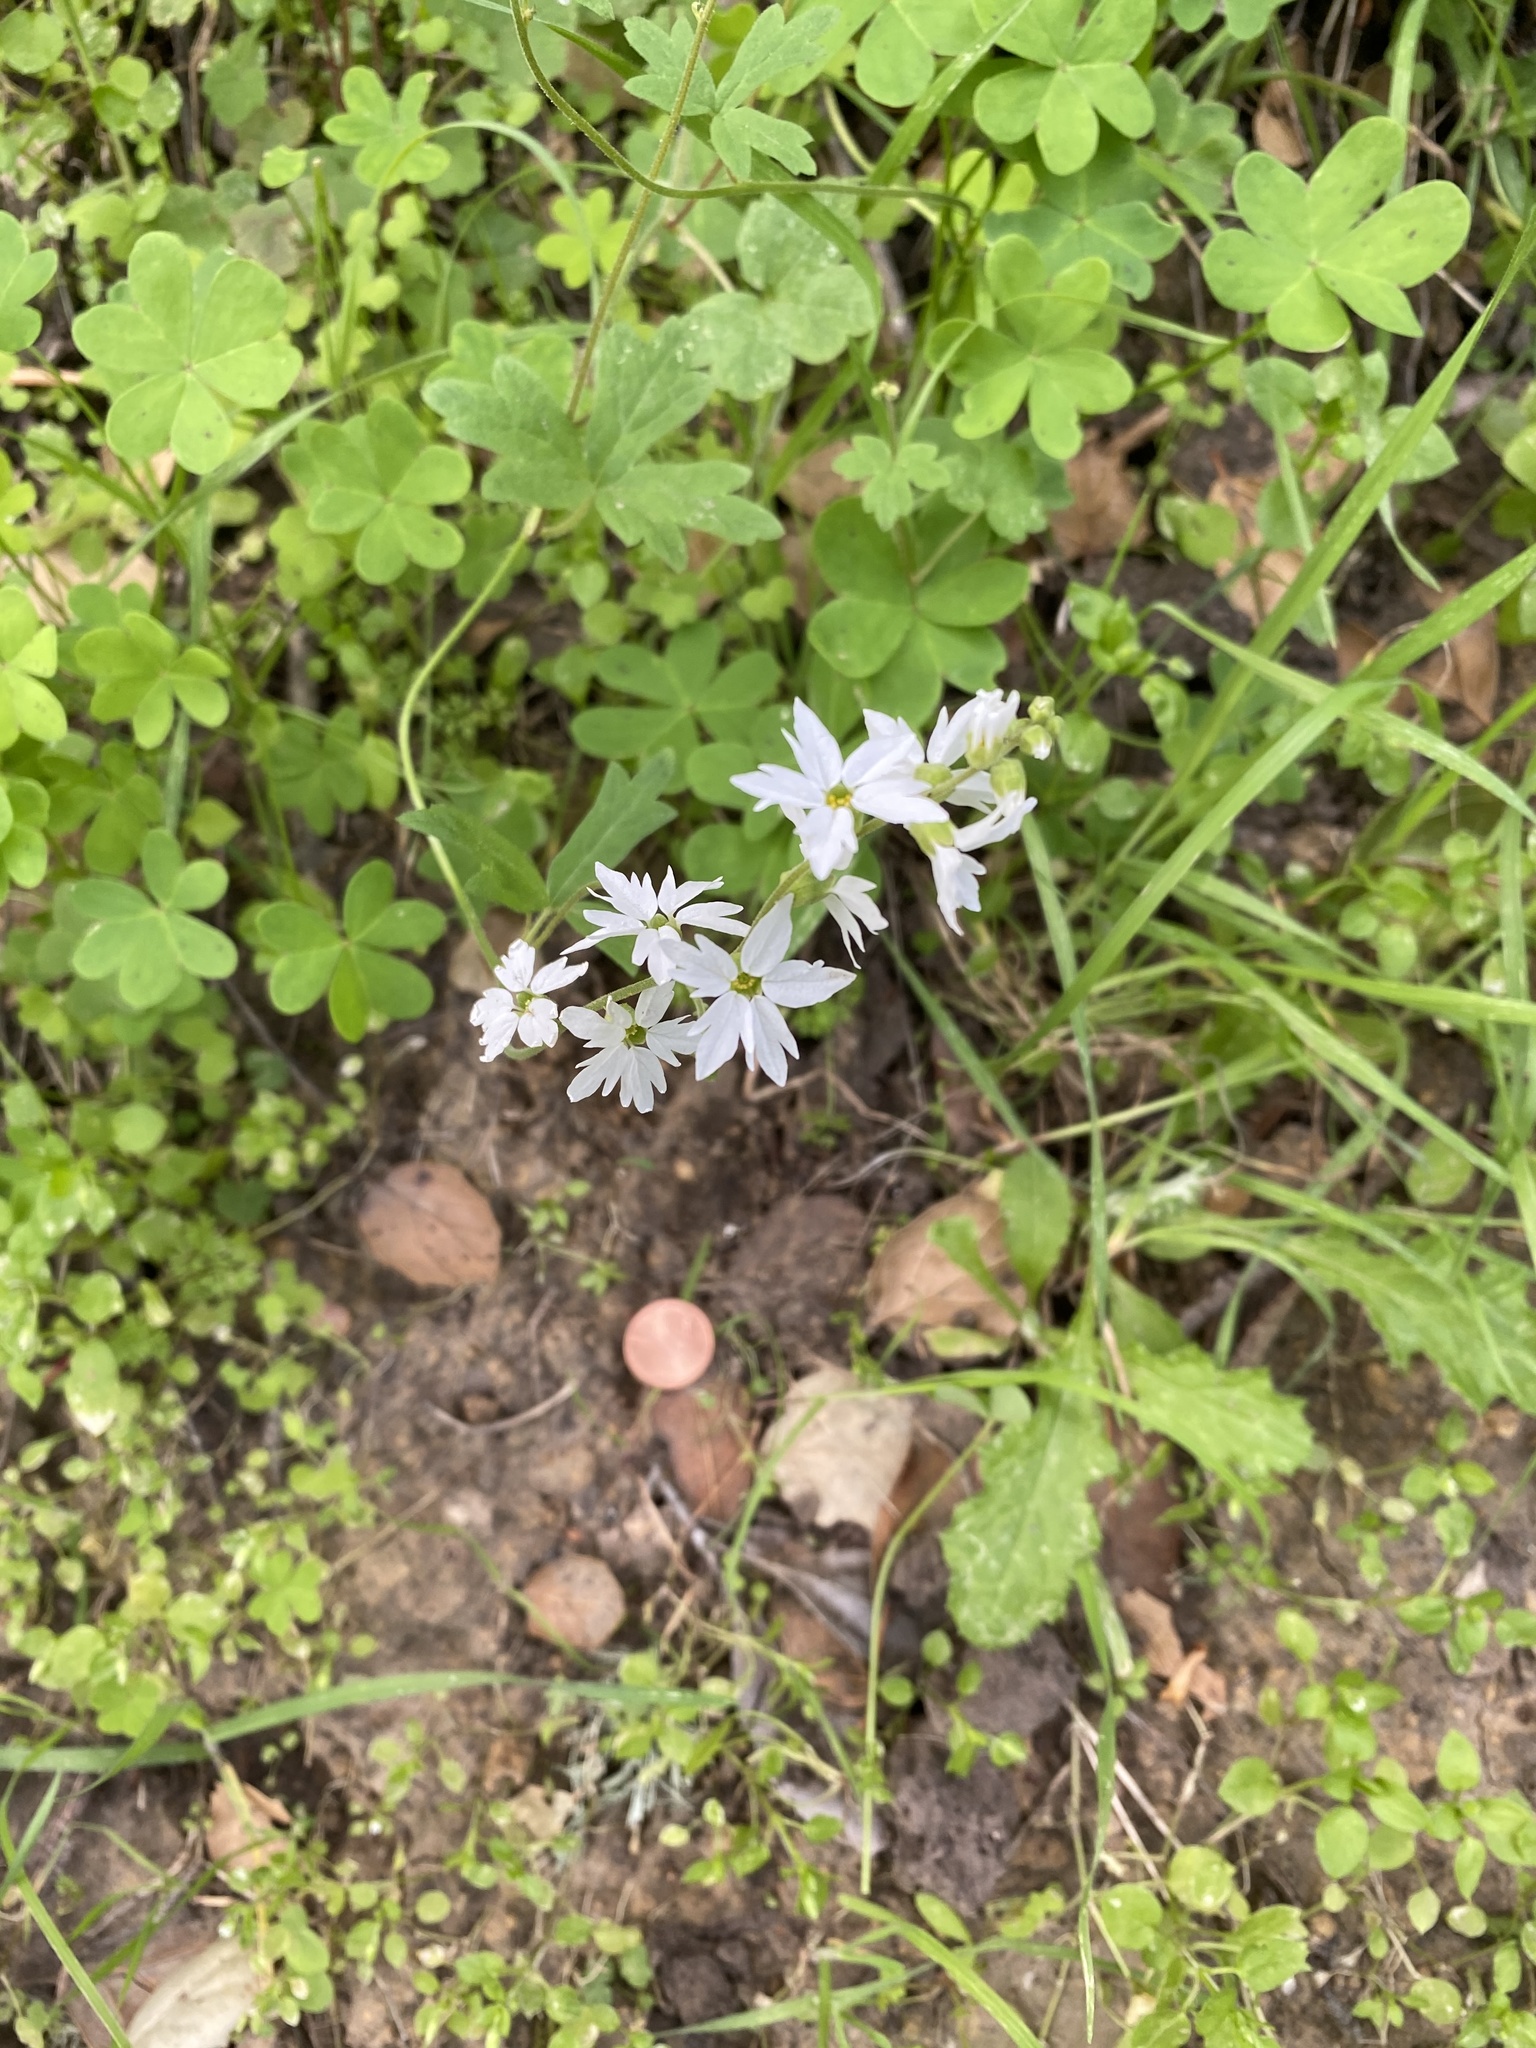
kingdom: Plantae
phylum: Tracheophyta
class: Magnoliopsida
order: Saxifragales
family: Saxifragaceae
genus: Lithophragma
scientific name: Lithophragma heterophyllum
